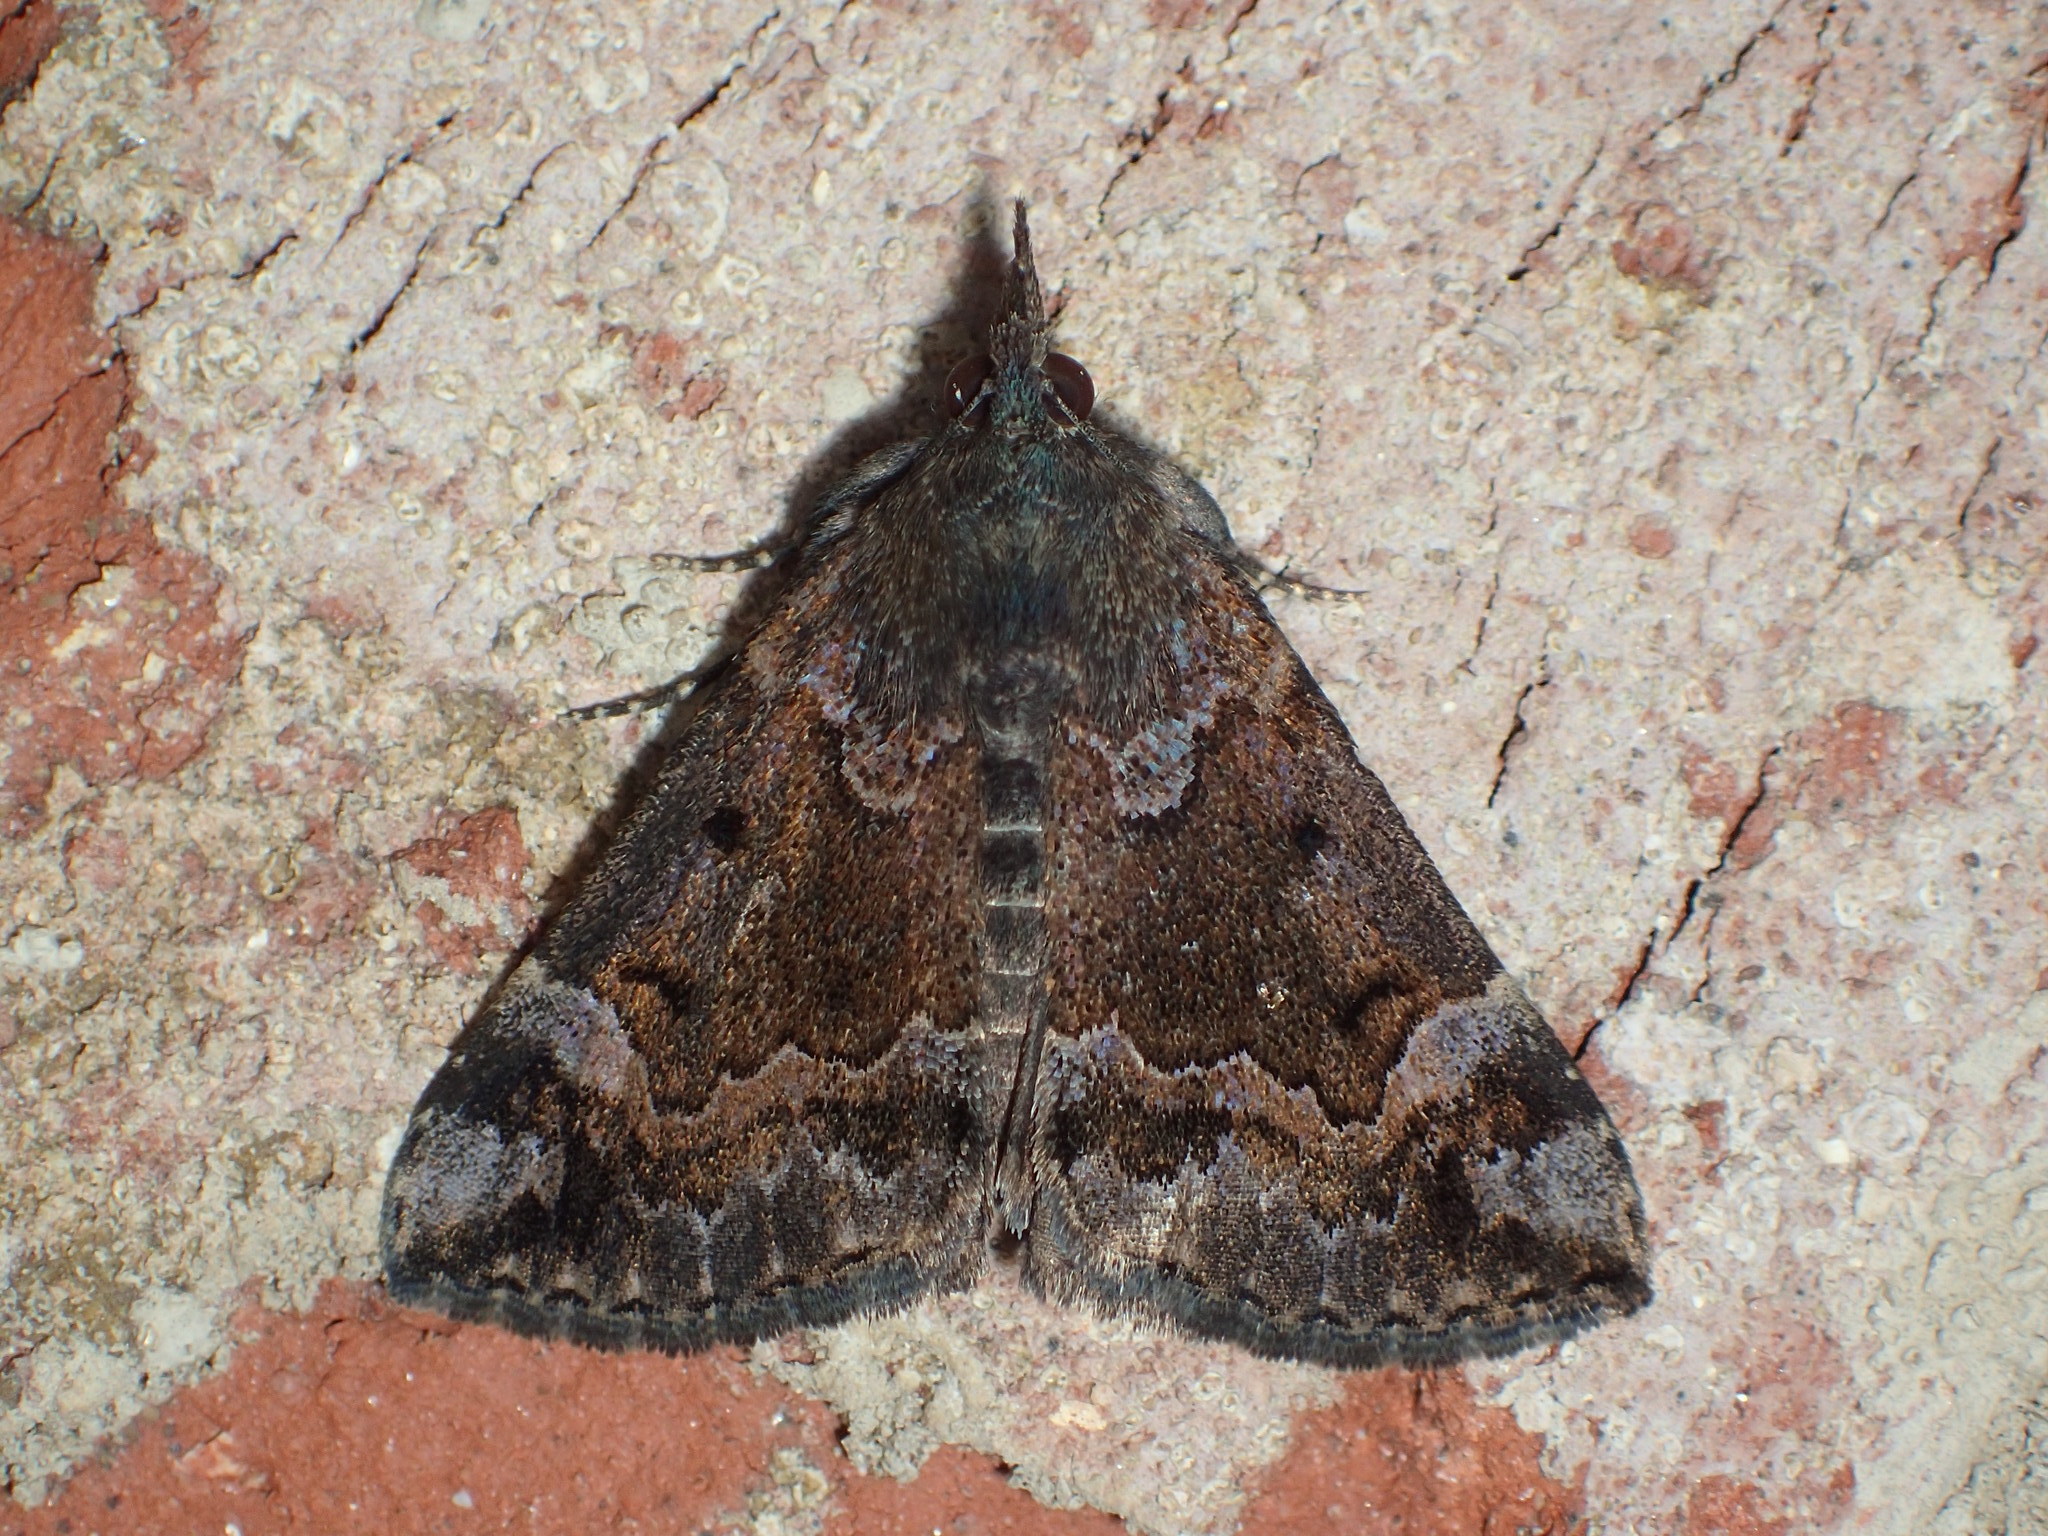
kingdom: Animalia
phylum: Arthropoda
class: Insecta
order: Lepidoptera
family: Erebidae
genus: Hypena
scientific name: Hypena palparia
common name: Mottled bomolocha moth
